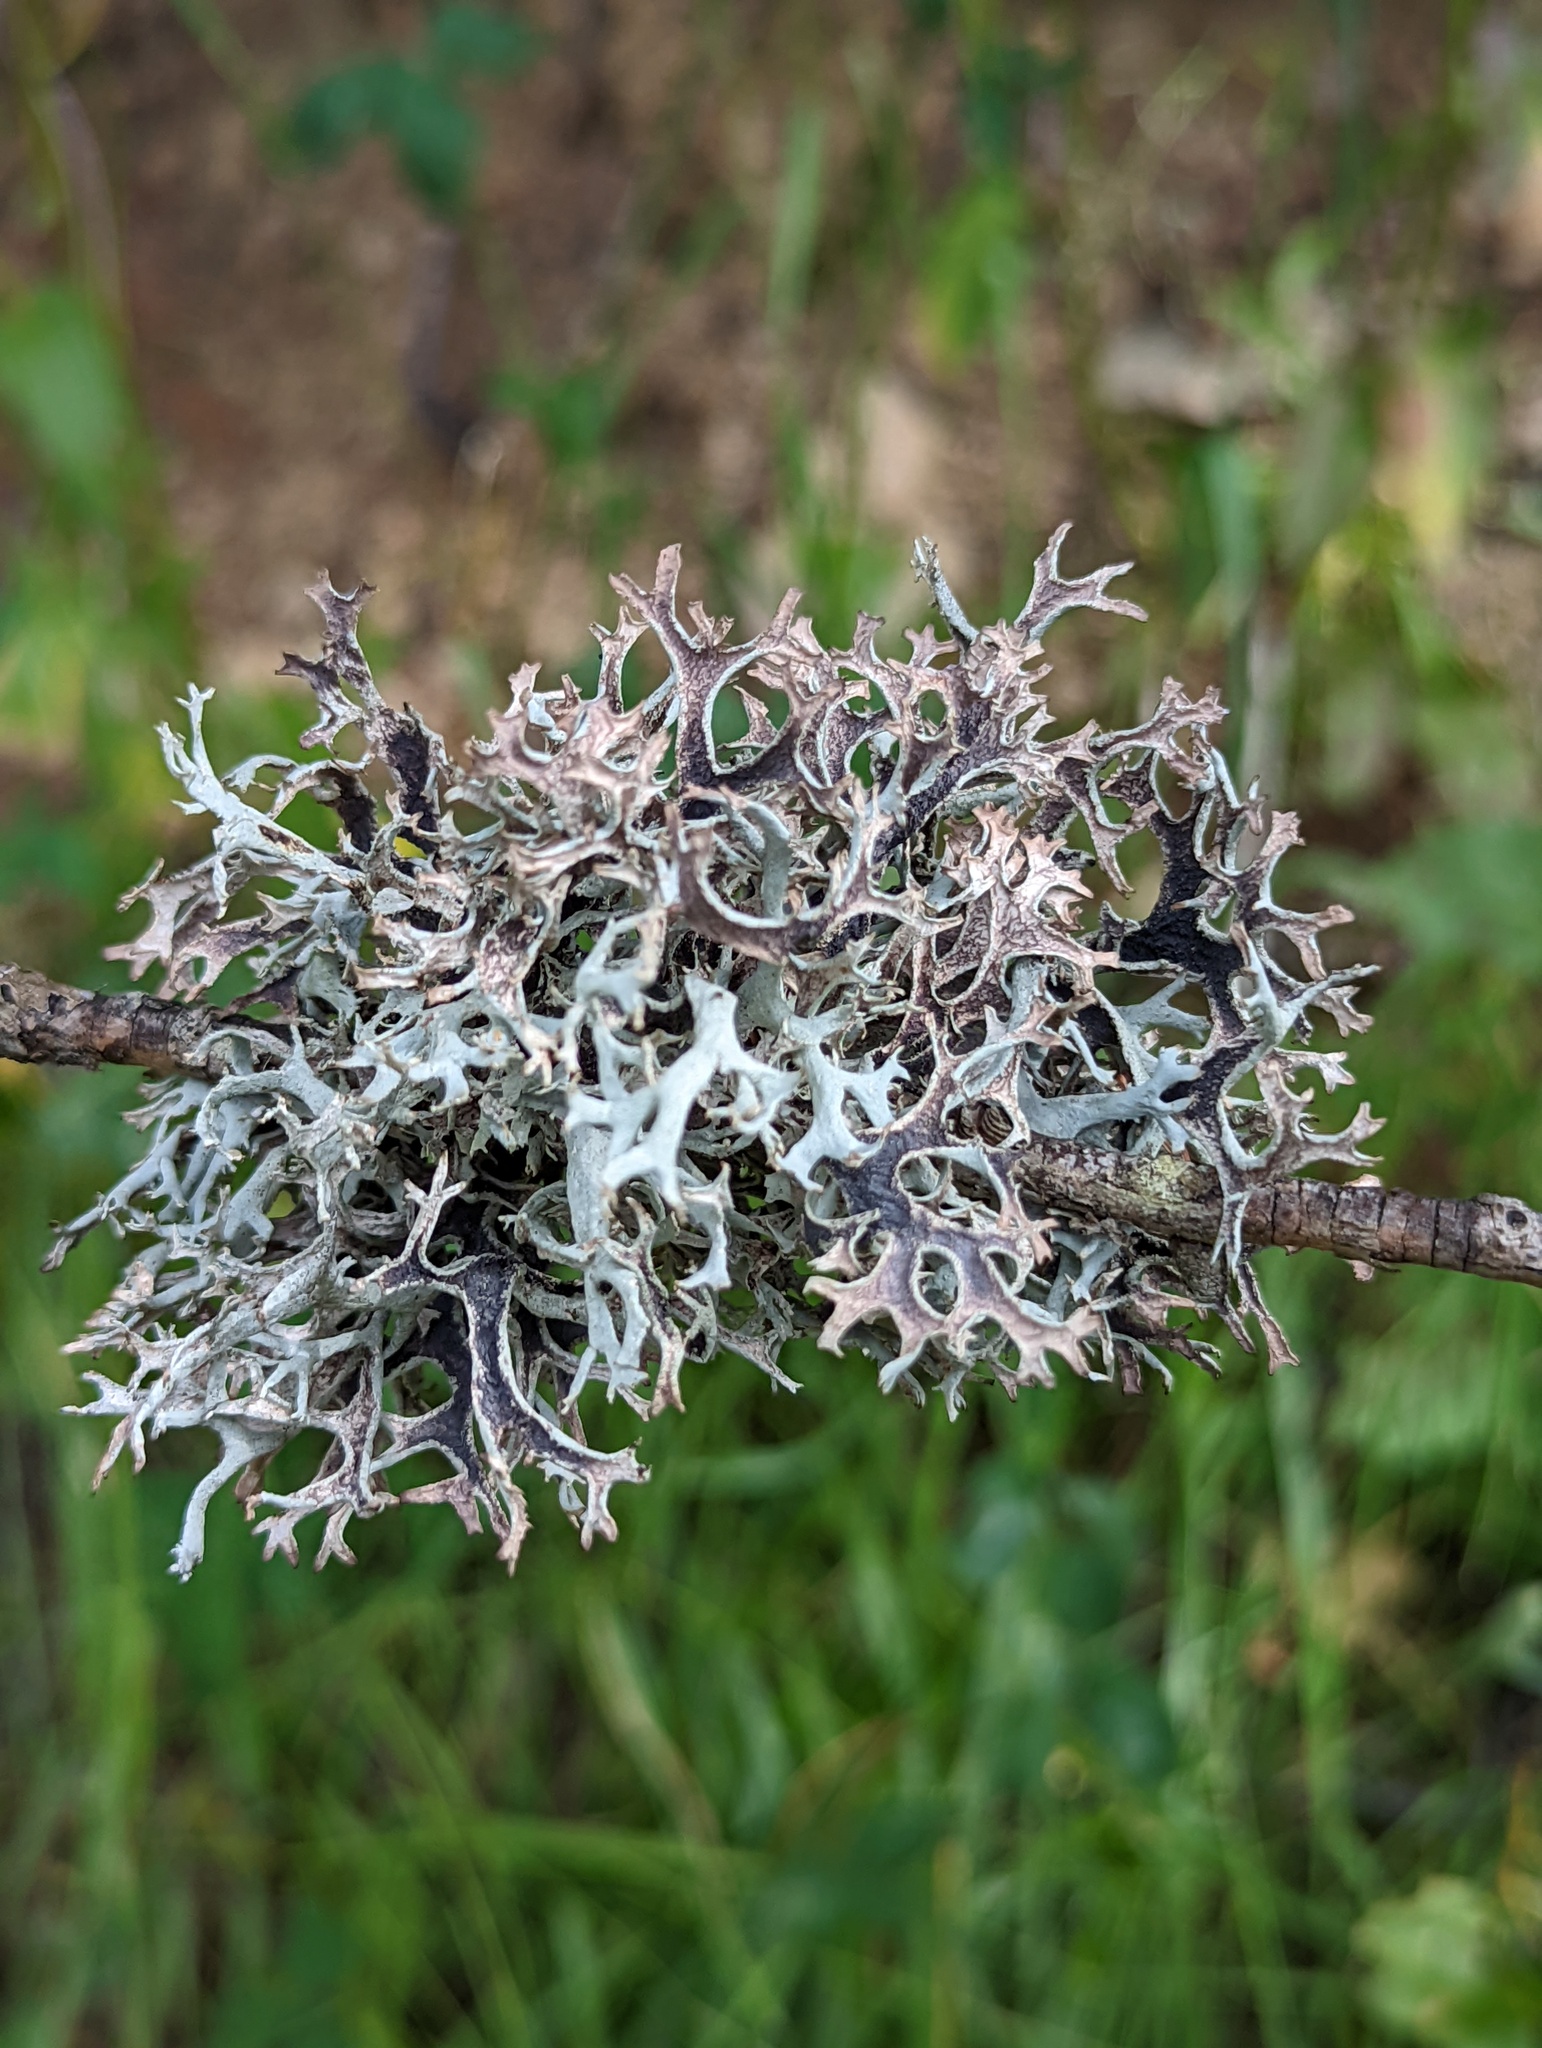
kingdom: Fungi
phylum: Ascomycota
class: Lecanoromycetes
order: Lecanorales
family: Parmeliaceae
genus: Pseudevernia
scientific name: Pseudevernia furfuracea
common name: Tree moss
